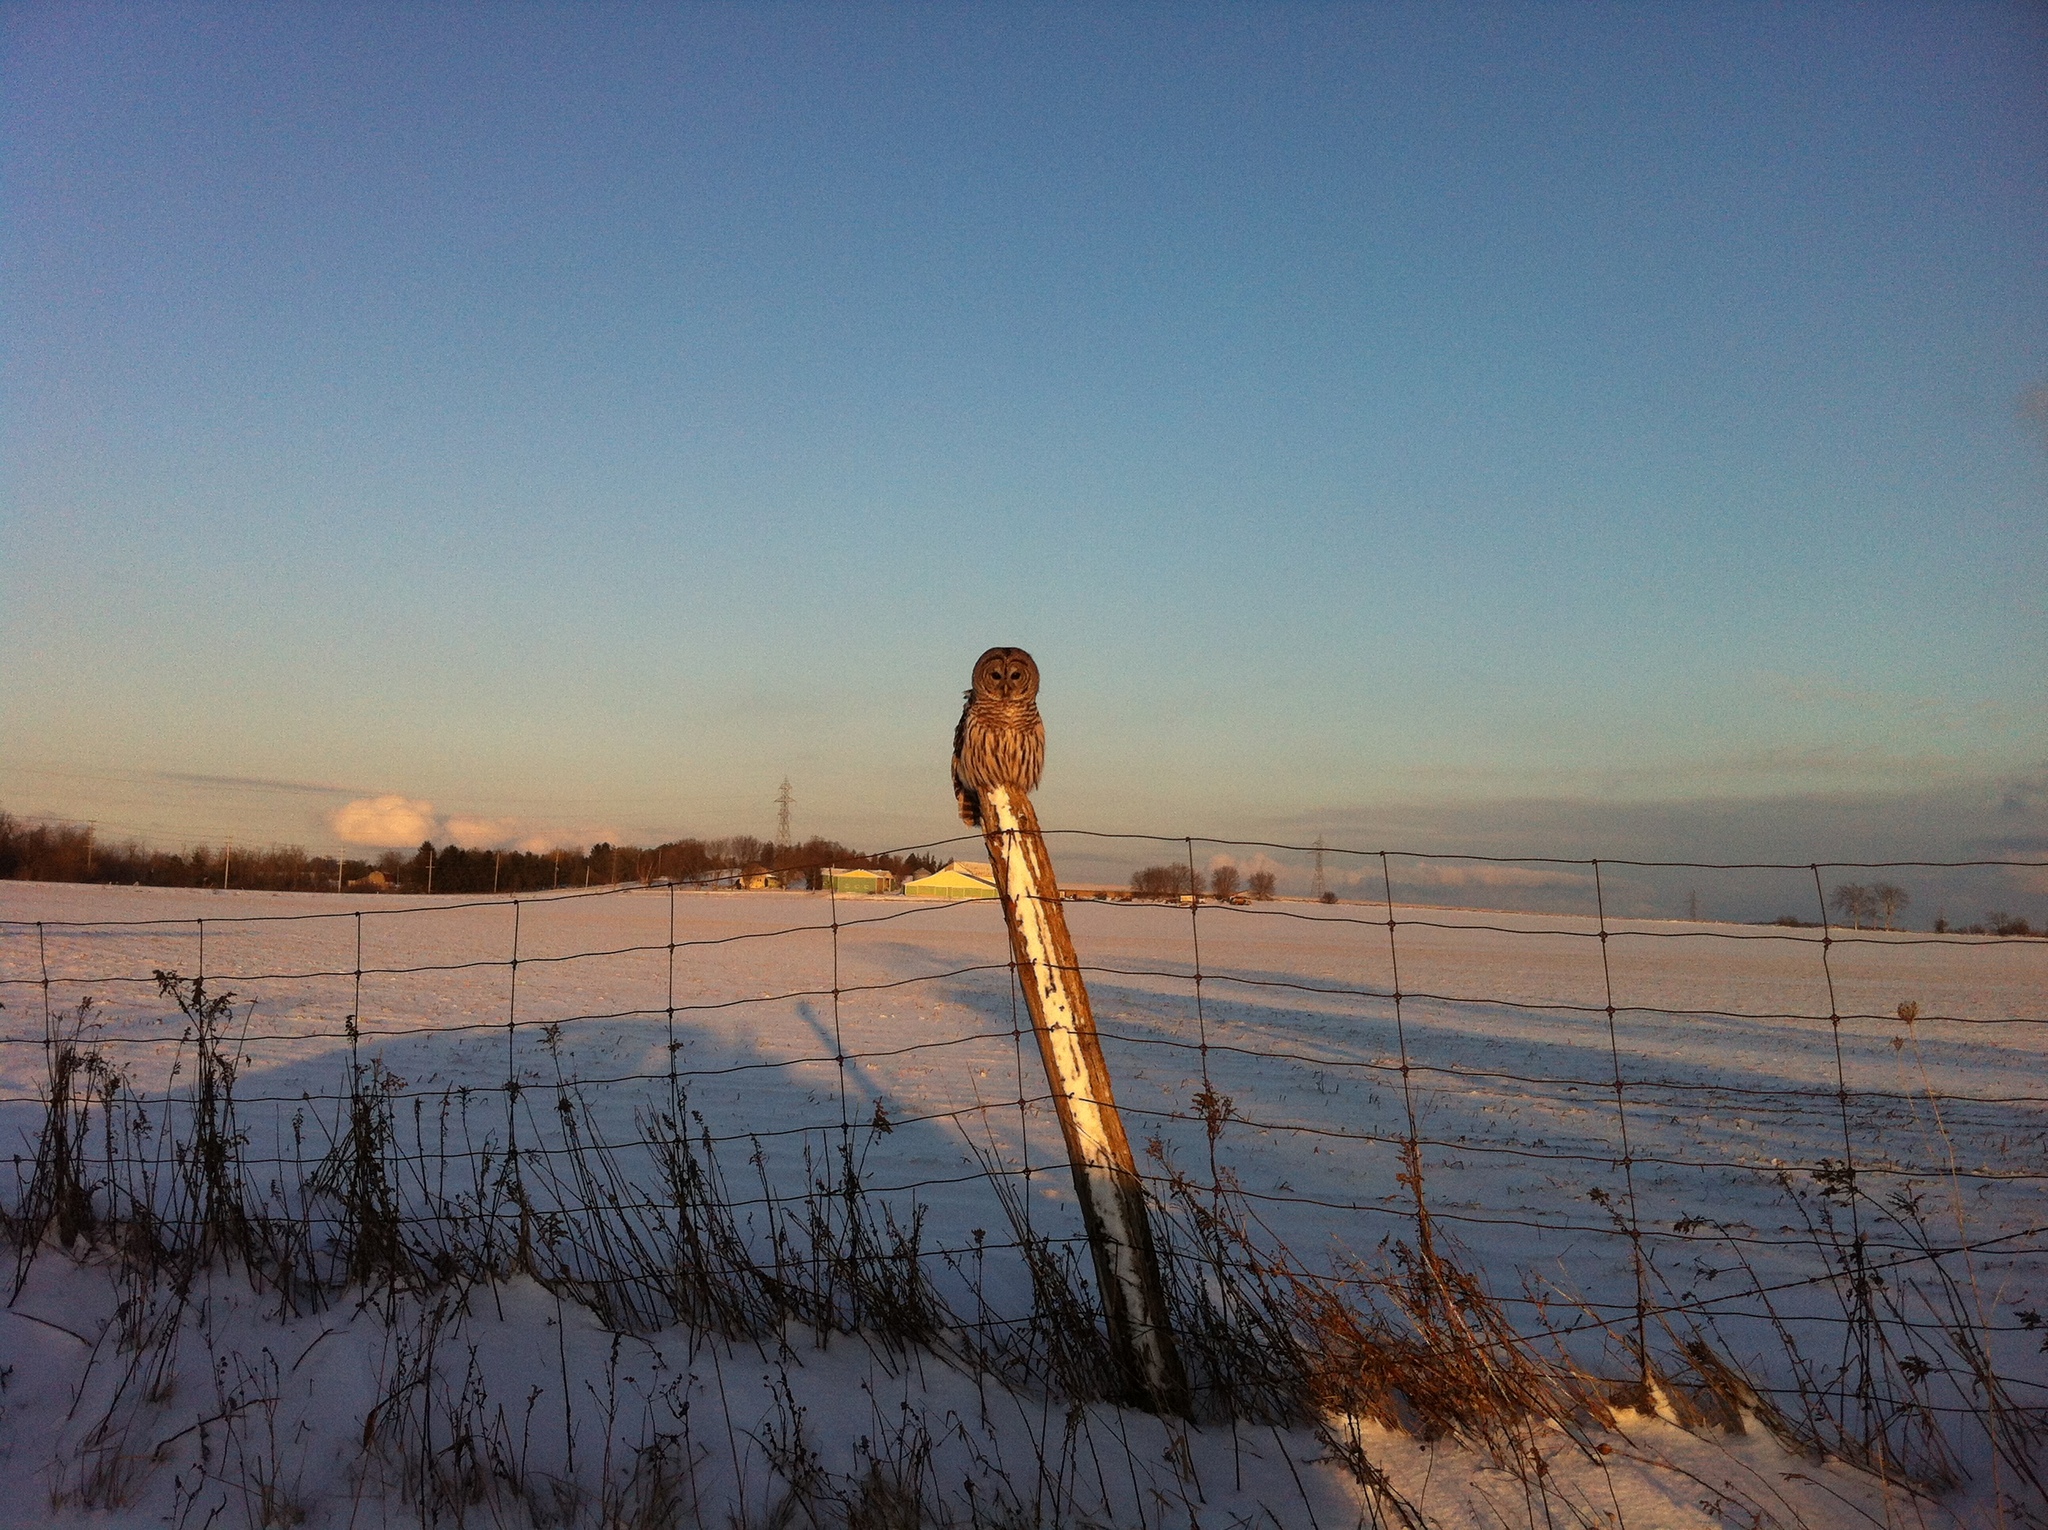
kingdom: Animalia
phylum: Chordata
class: Aves
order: Strigiformes
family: Strigidae
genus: Strix
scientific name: Strix varia
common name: Barred owl
